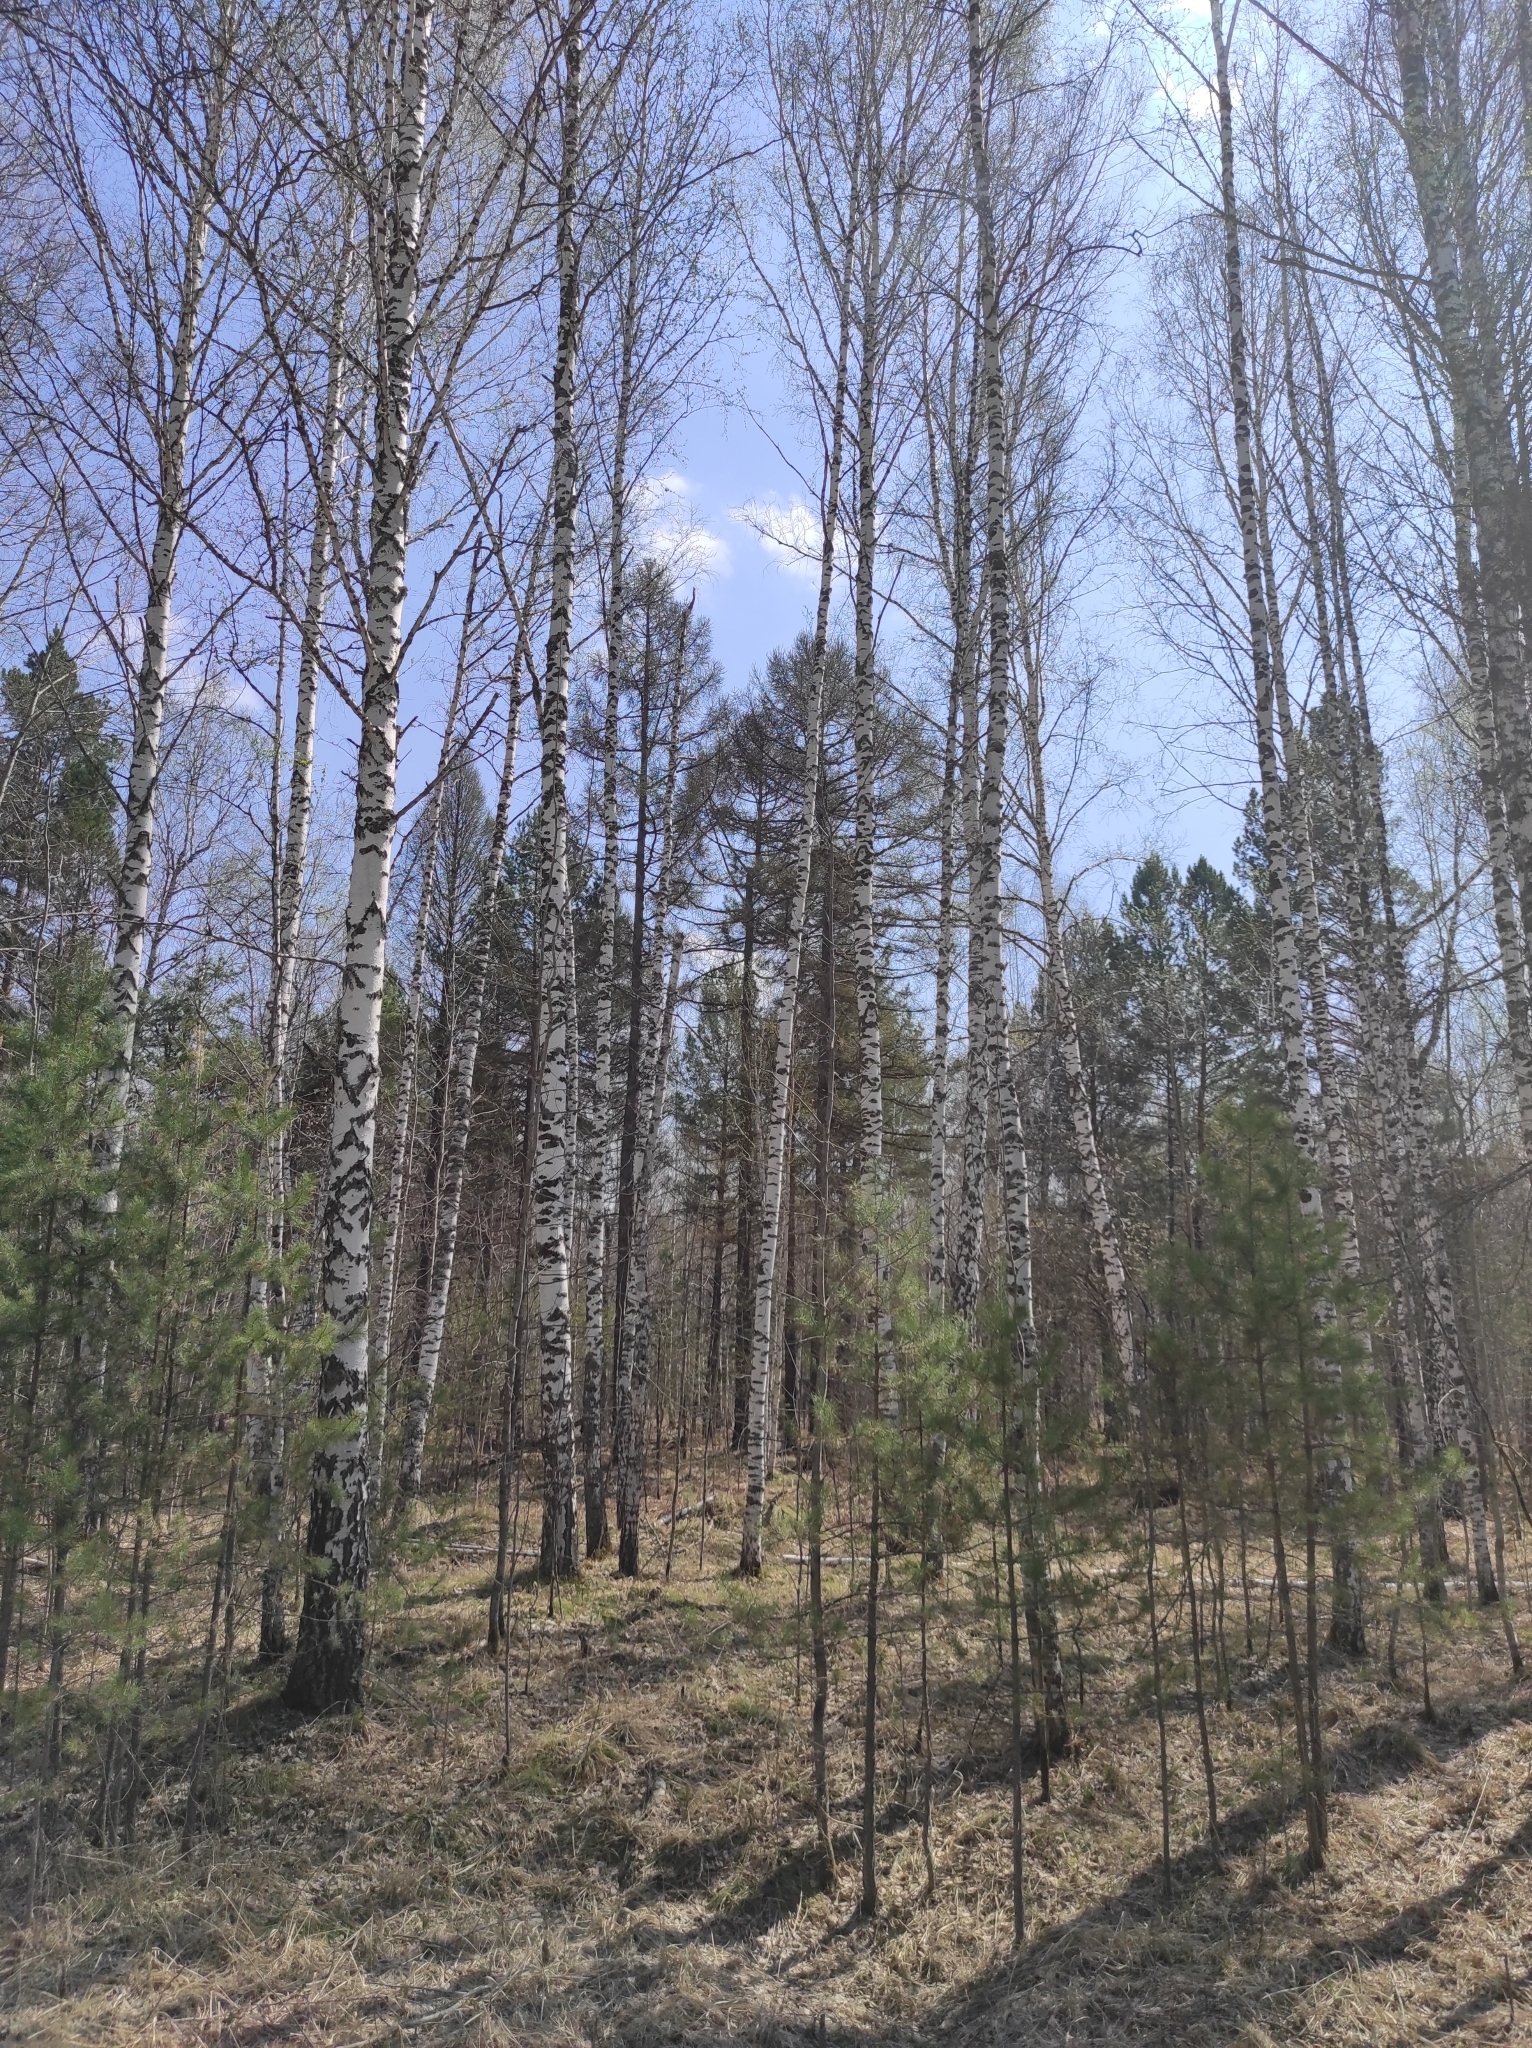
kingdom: Plantae
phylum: Tracheophyta
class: Pinopsida
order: Pinales
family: Pinaceae
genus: Larix
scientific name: Larix sibirica
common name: Siberian larch
